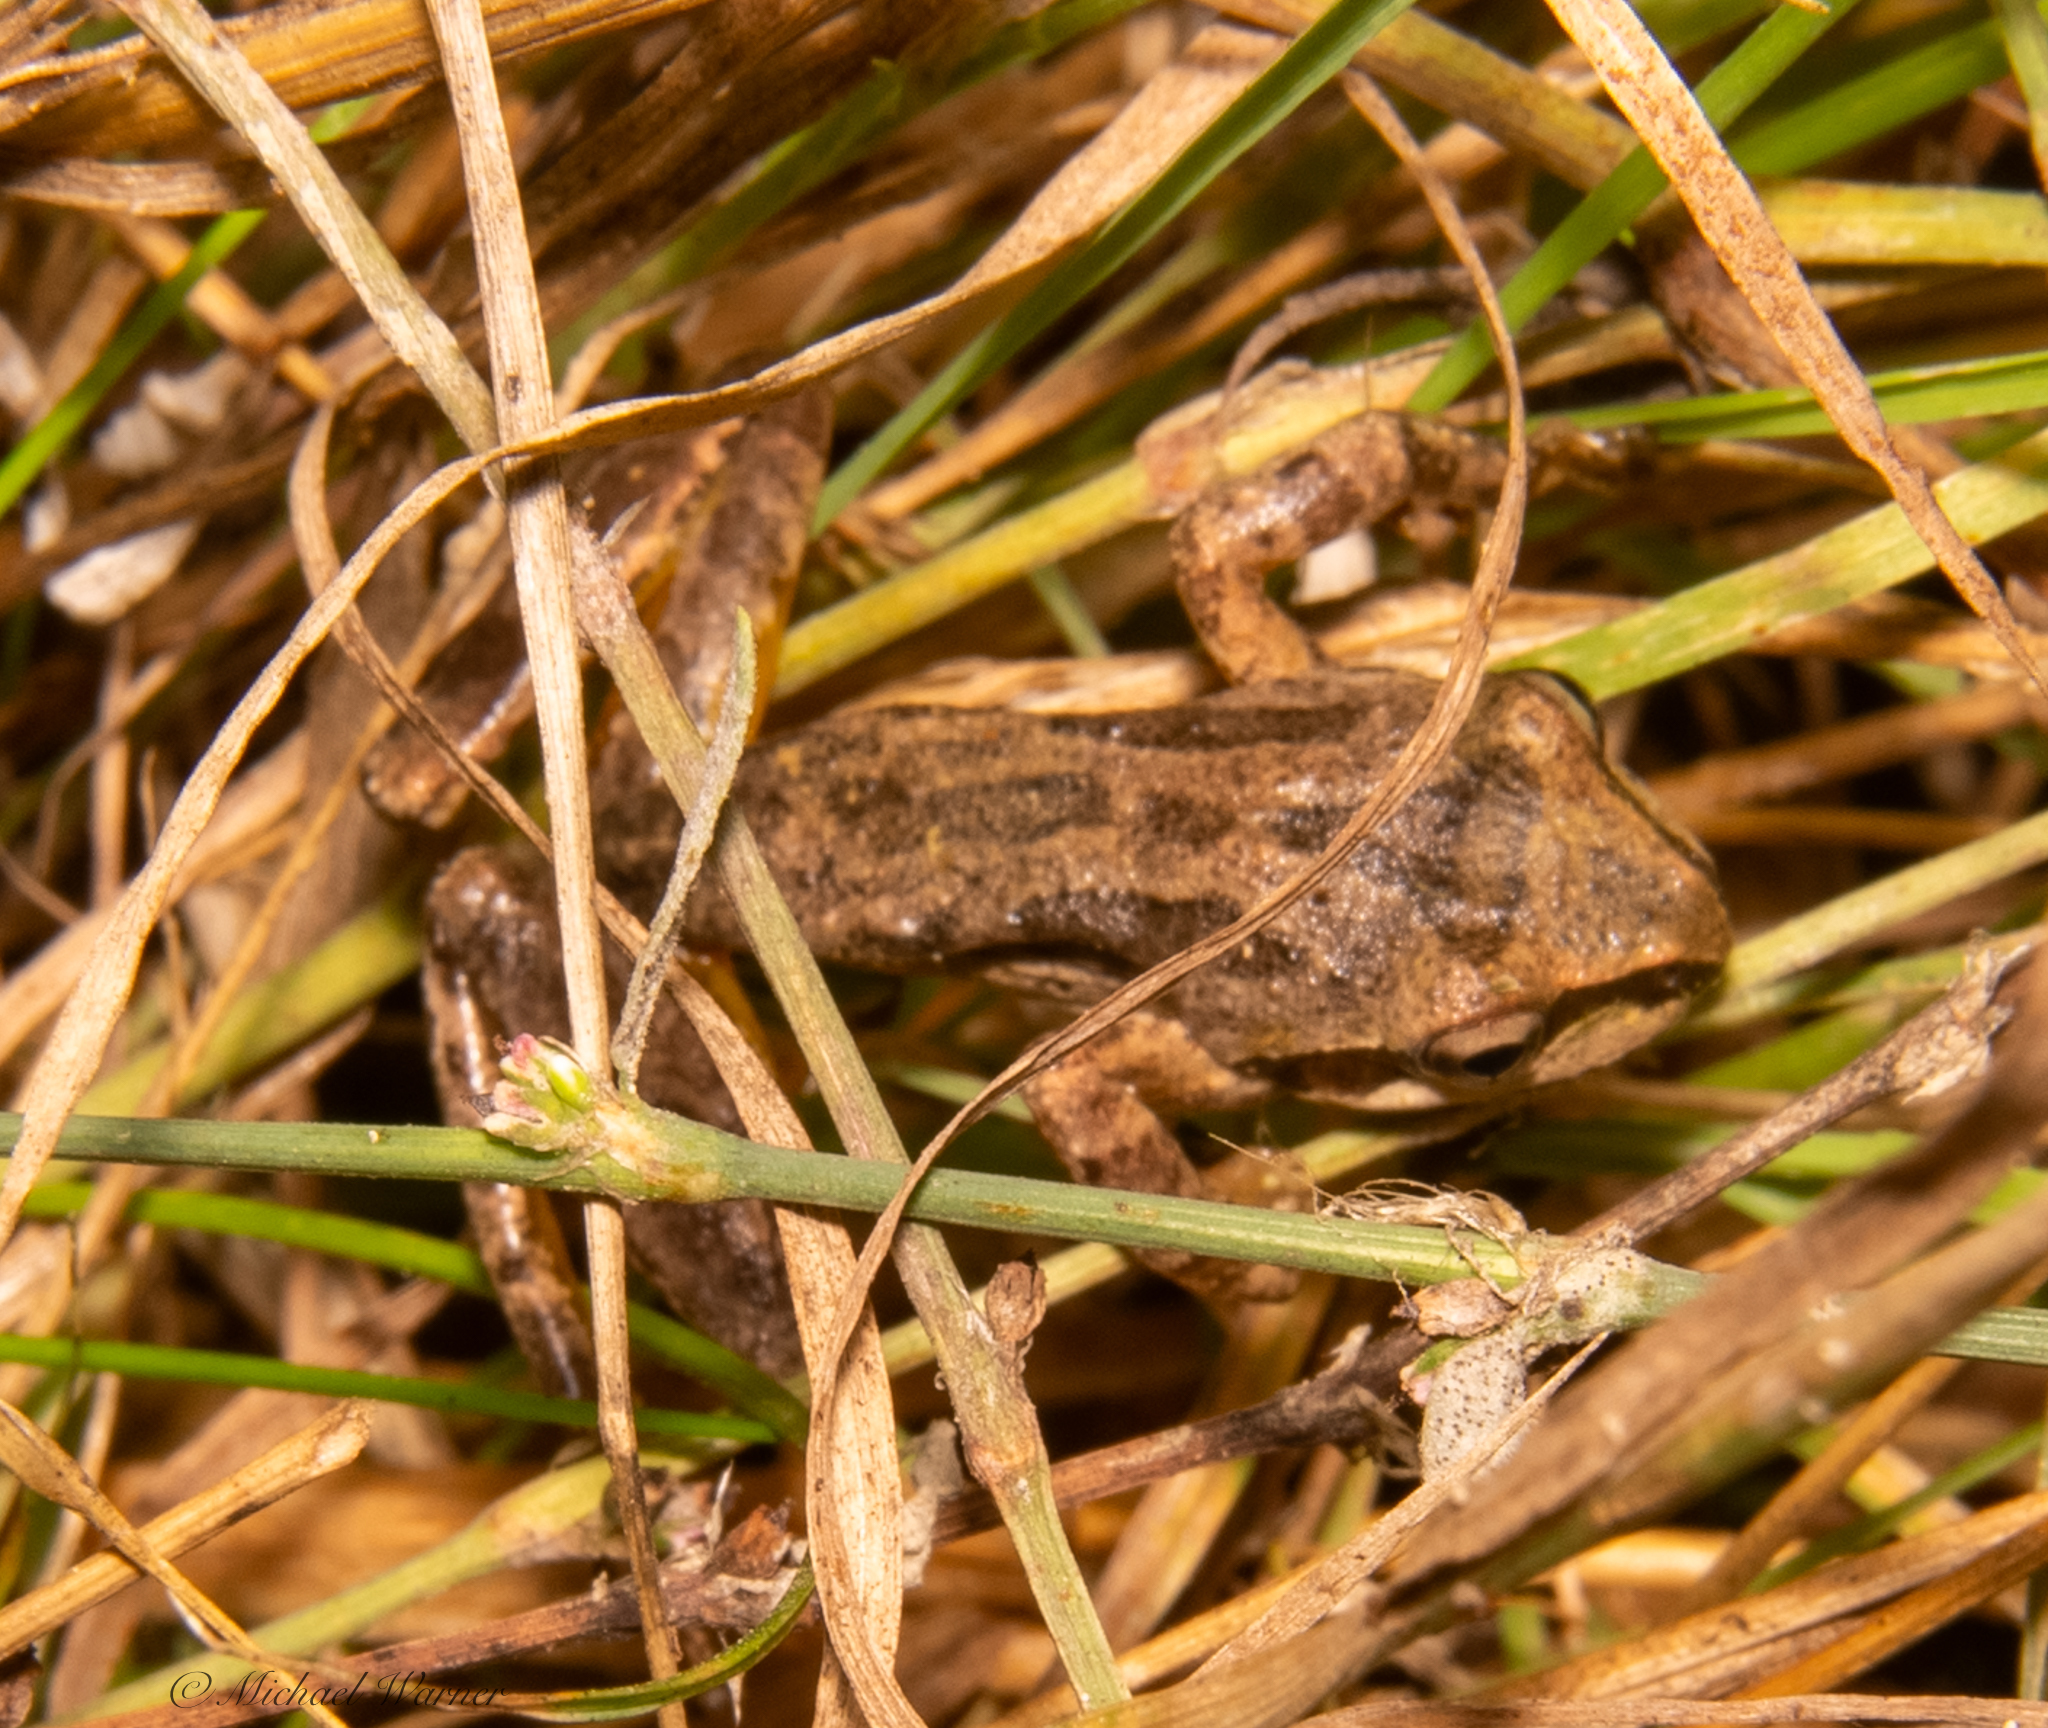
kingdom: Animalia
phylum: Chordata
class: Amphibia
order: Anura
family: Hylidae
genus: Pseudacris
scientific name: Pseudacris regilla
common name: Pacific chorus frog
